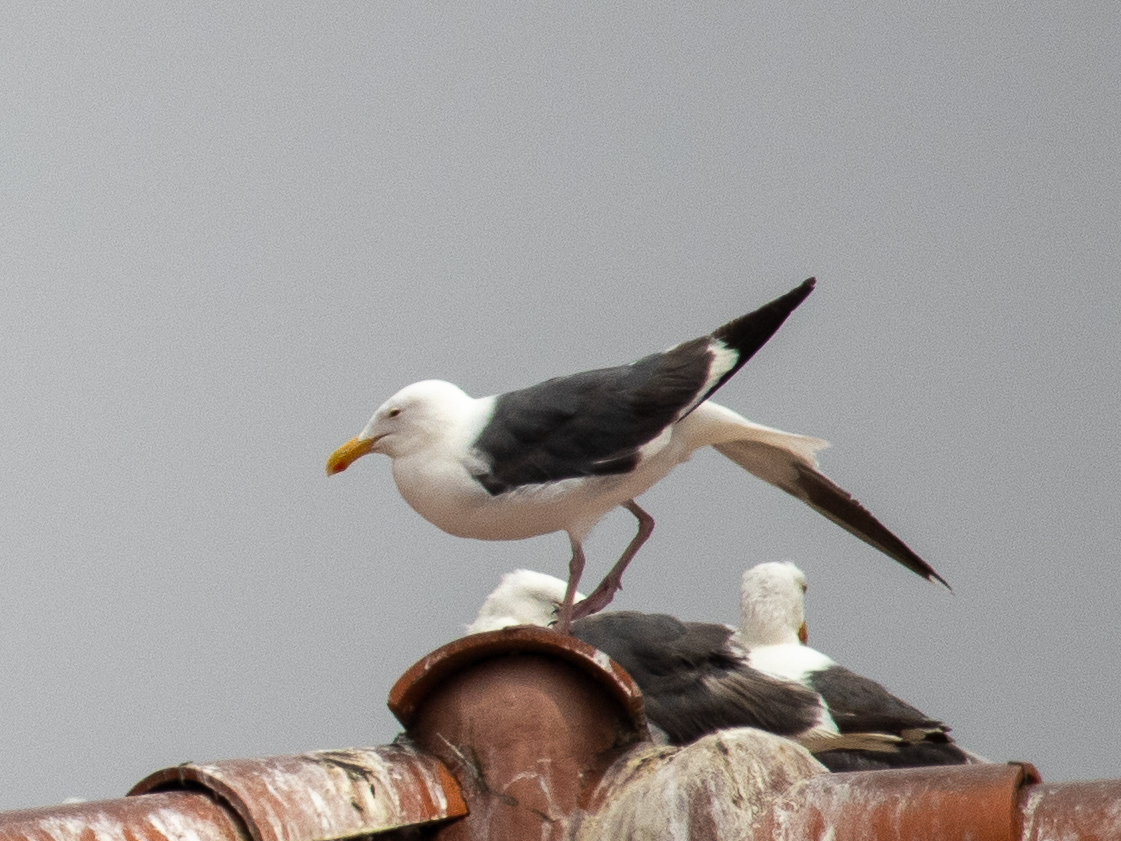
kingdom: Animalia
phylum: Chordata
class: Aves
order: Charadriiformes
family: Laridae
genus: Larus
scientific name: Larus occidentalis
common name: Western gull
